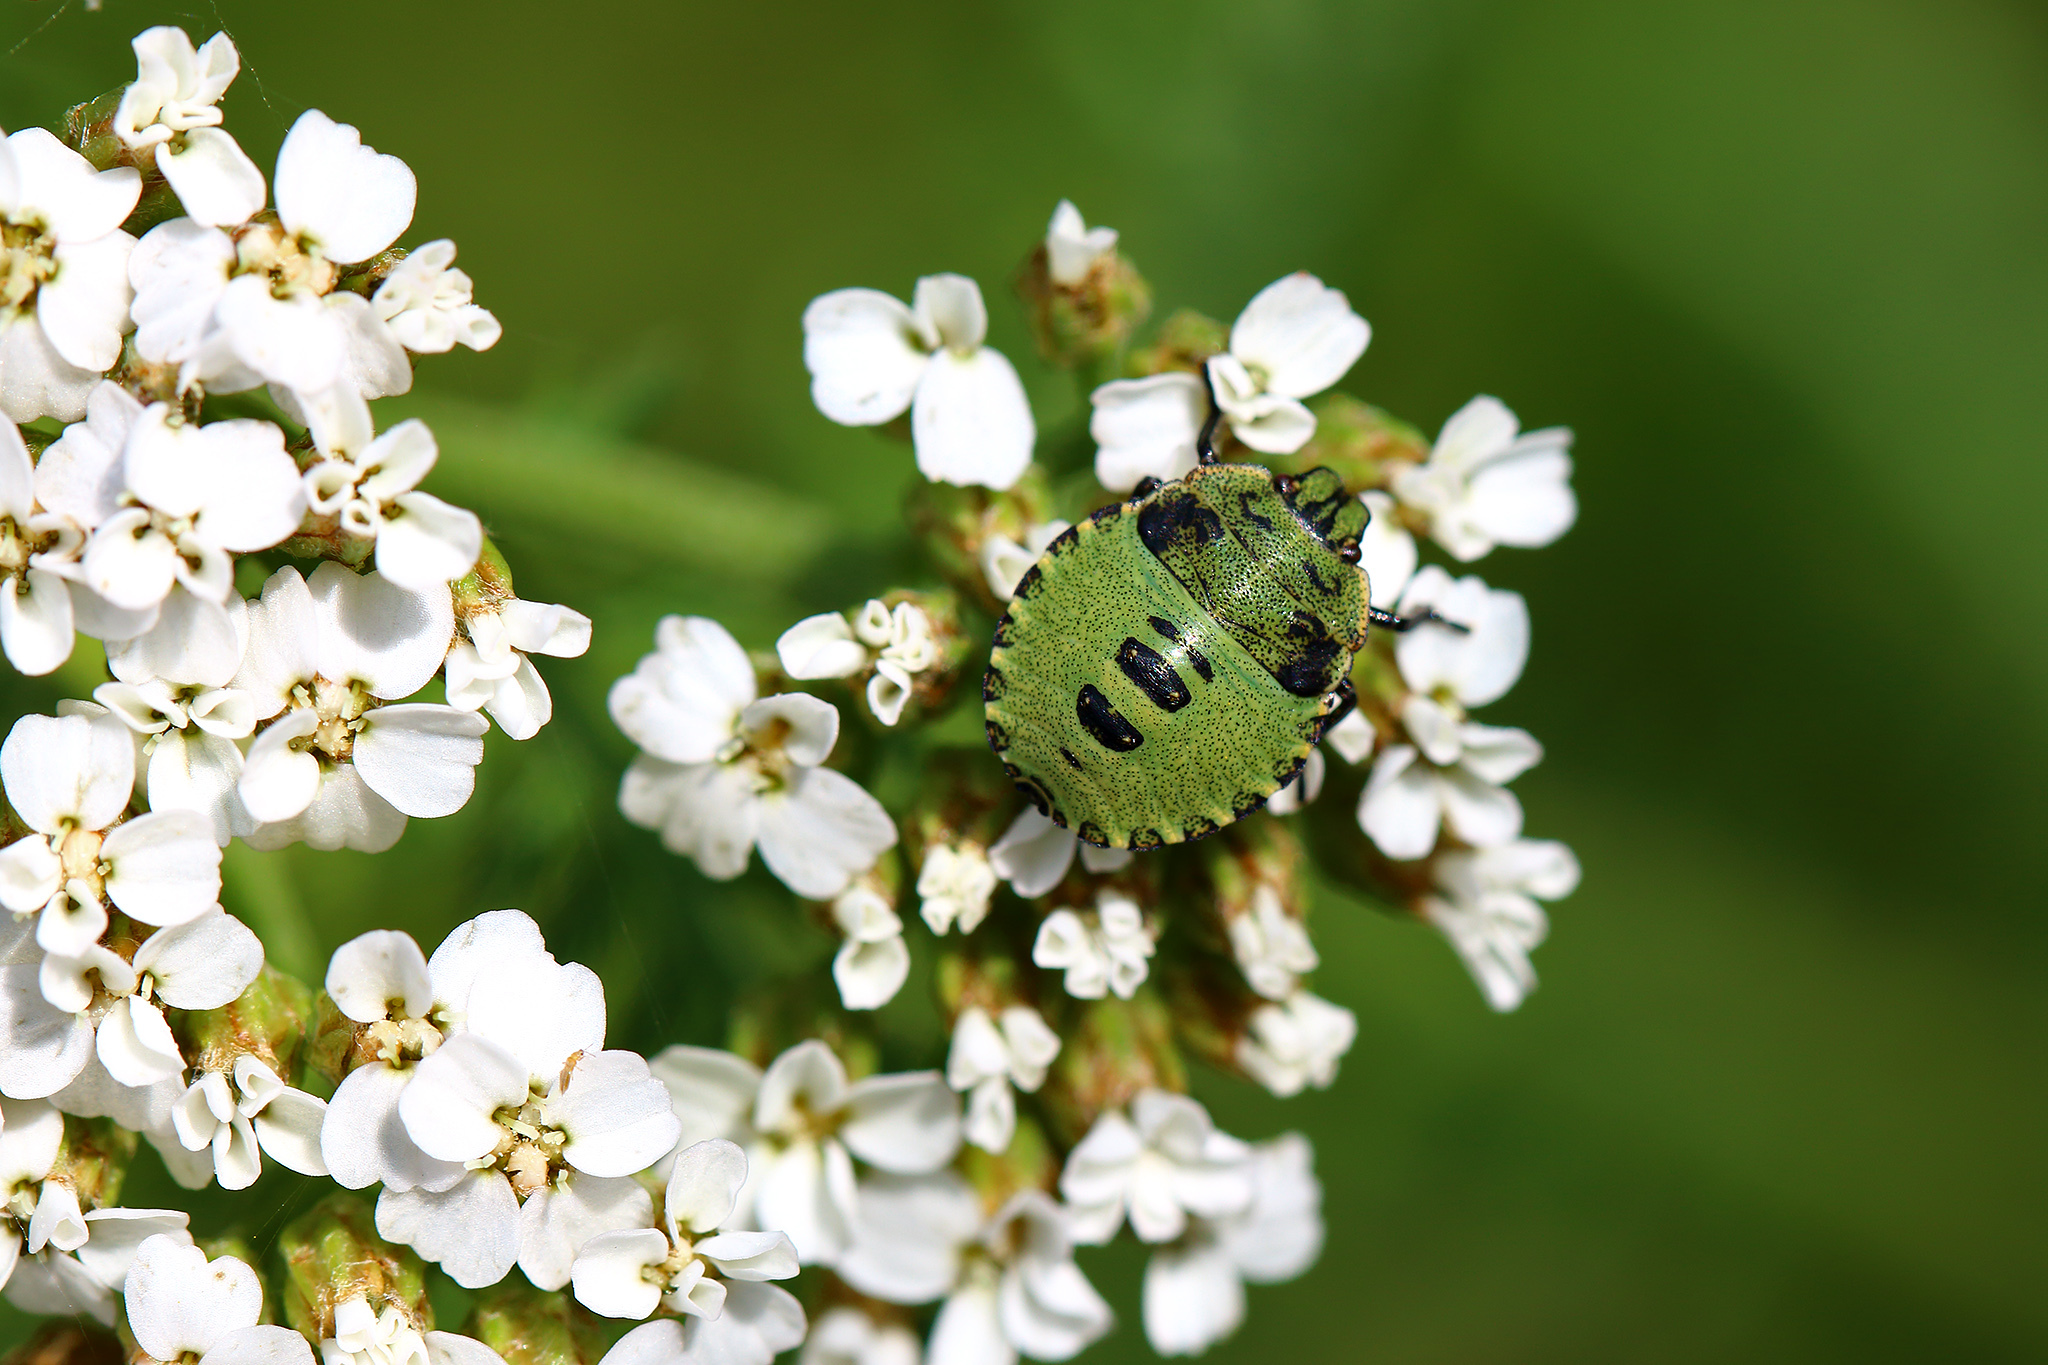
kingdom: Animalia
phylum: Arthropoda
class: Insecta
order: Hemiptera
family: Pentatomidae
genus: Palomena
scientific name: Palomena prasina
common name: Green shieldbug
